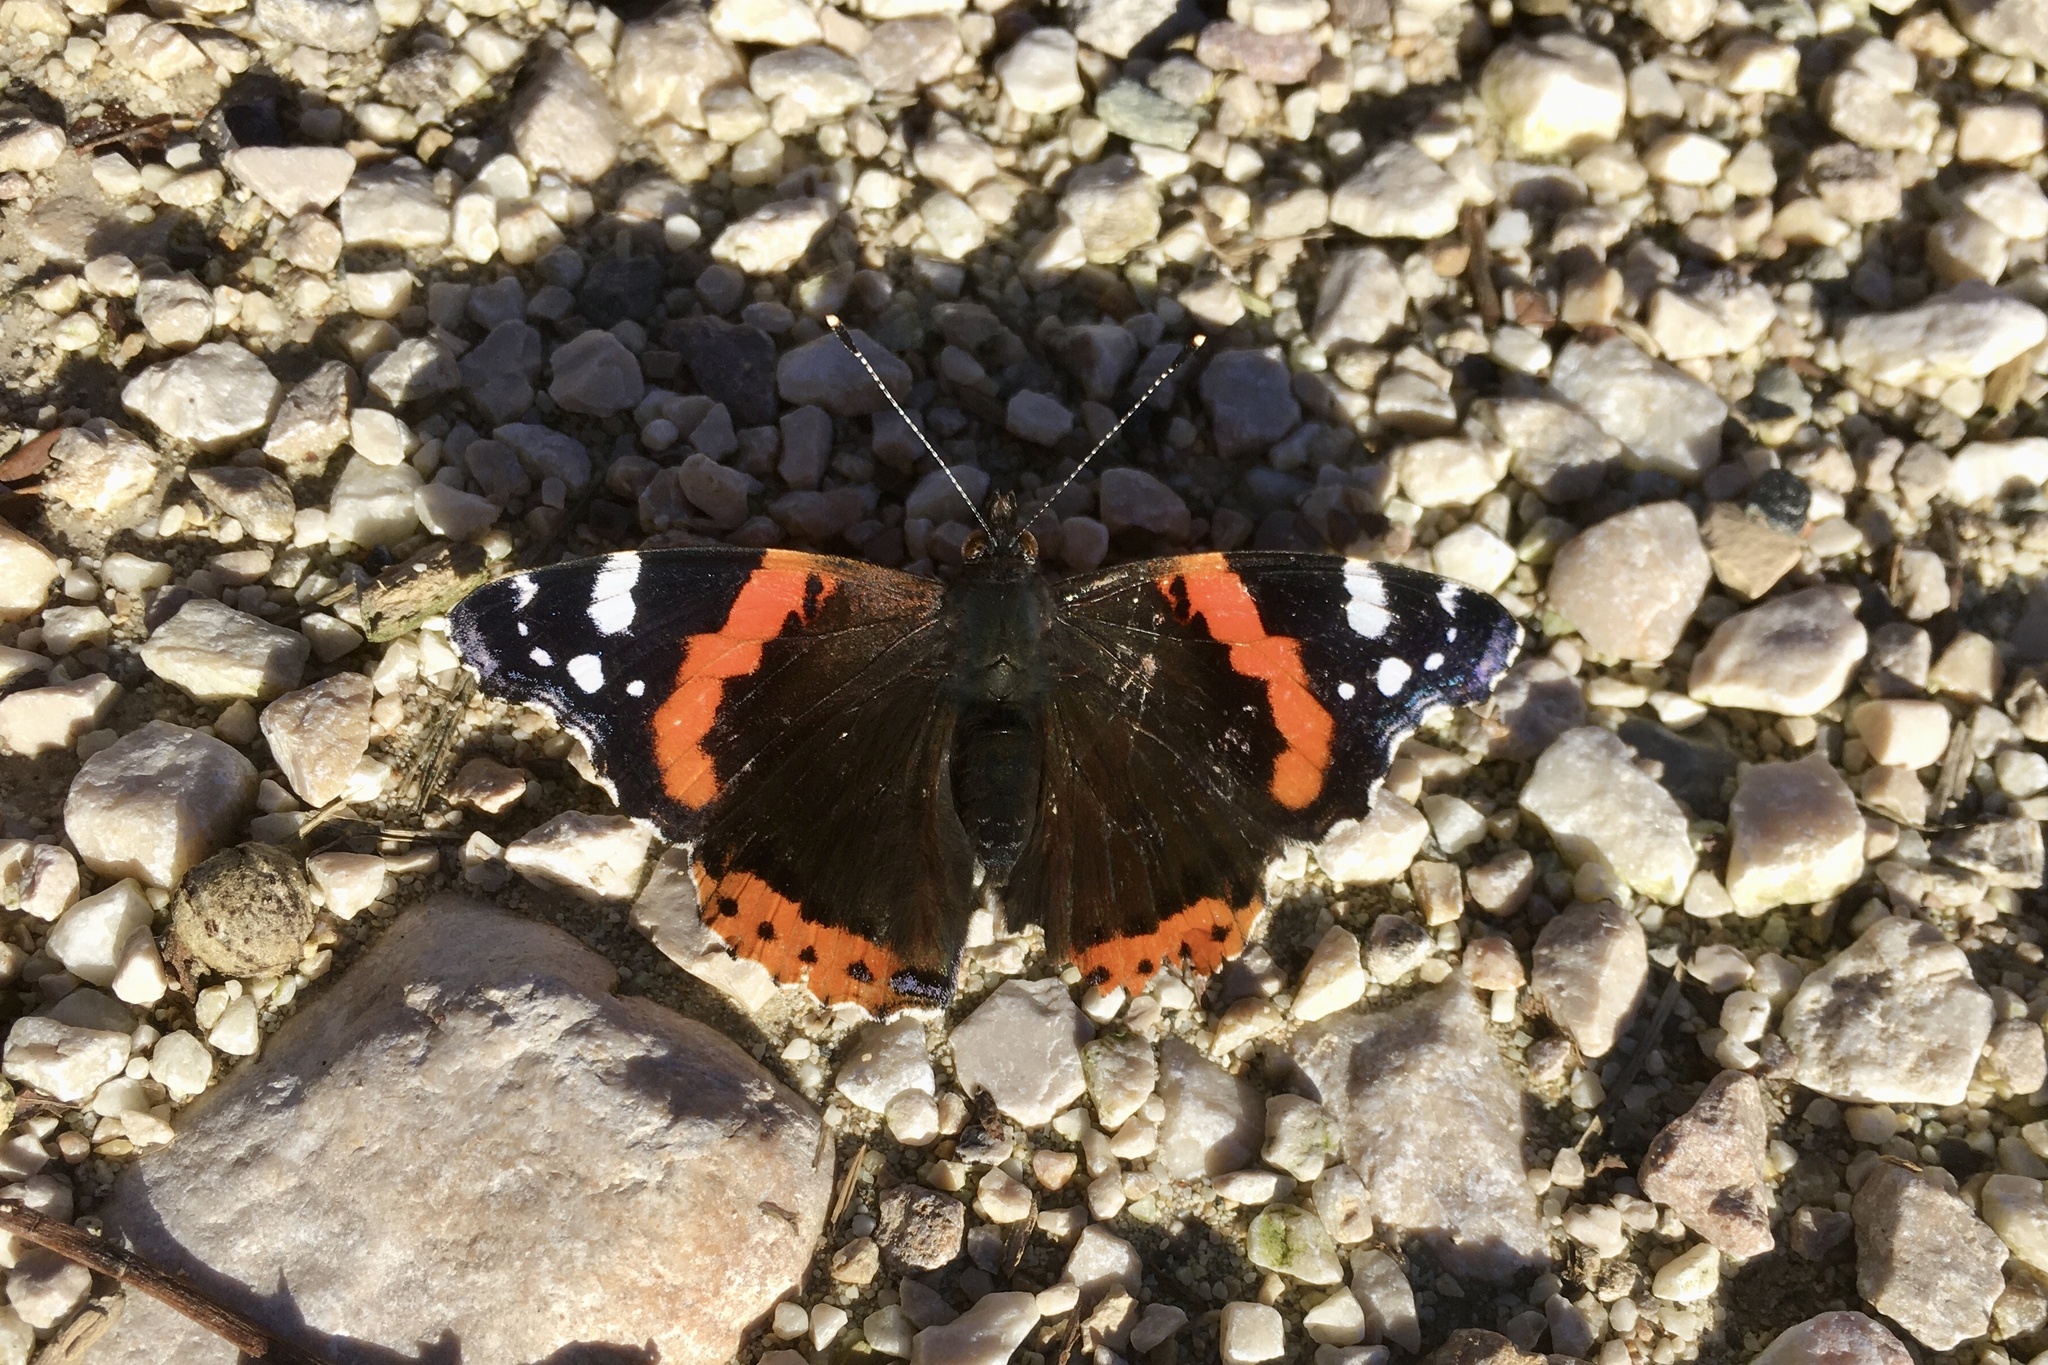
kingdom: Animalia
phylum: Arthropoda
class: Insecta
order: Lepidoptera
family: Nymphalidae
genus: Vanessa
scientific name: Vanessa atalanta
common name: Red admiral
